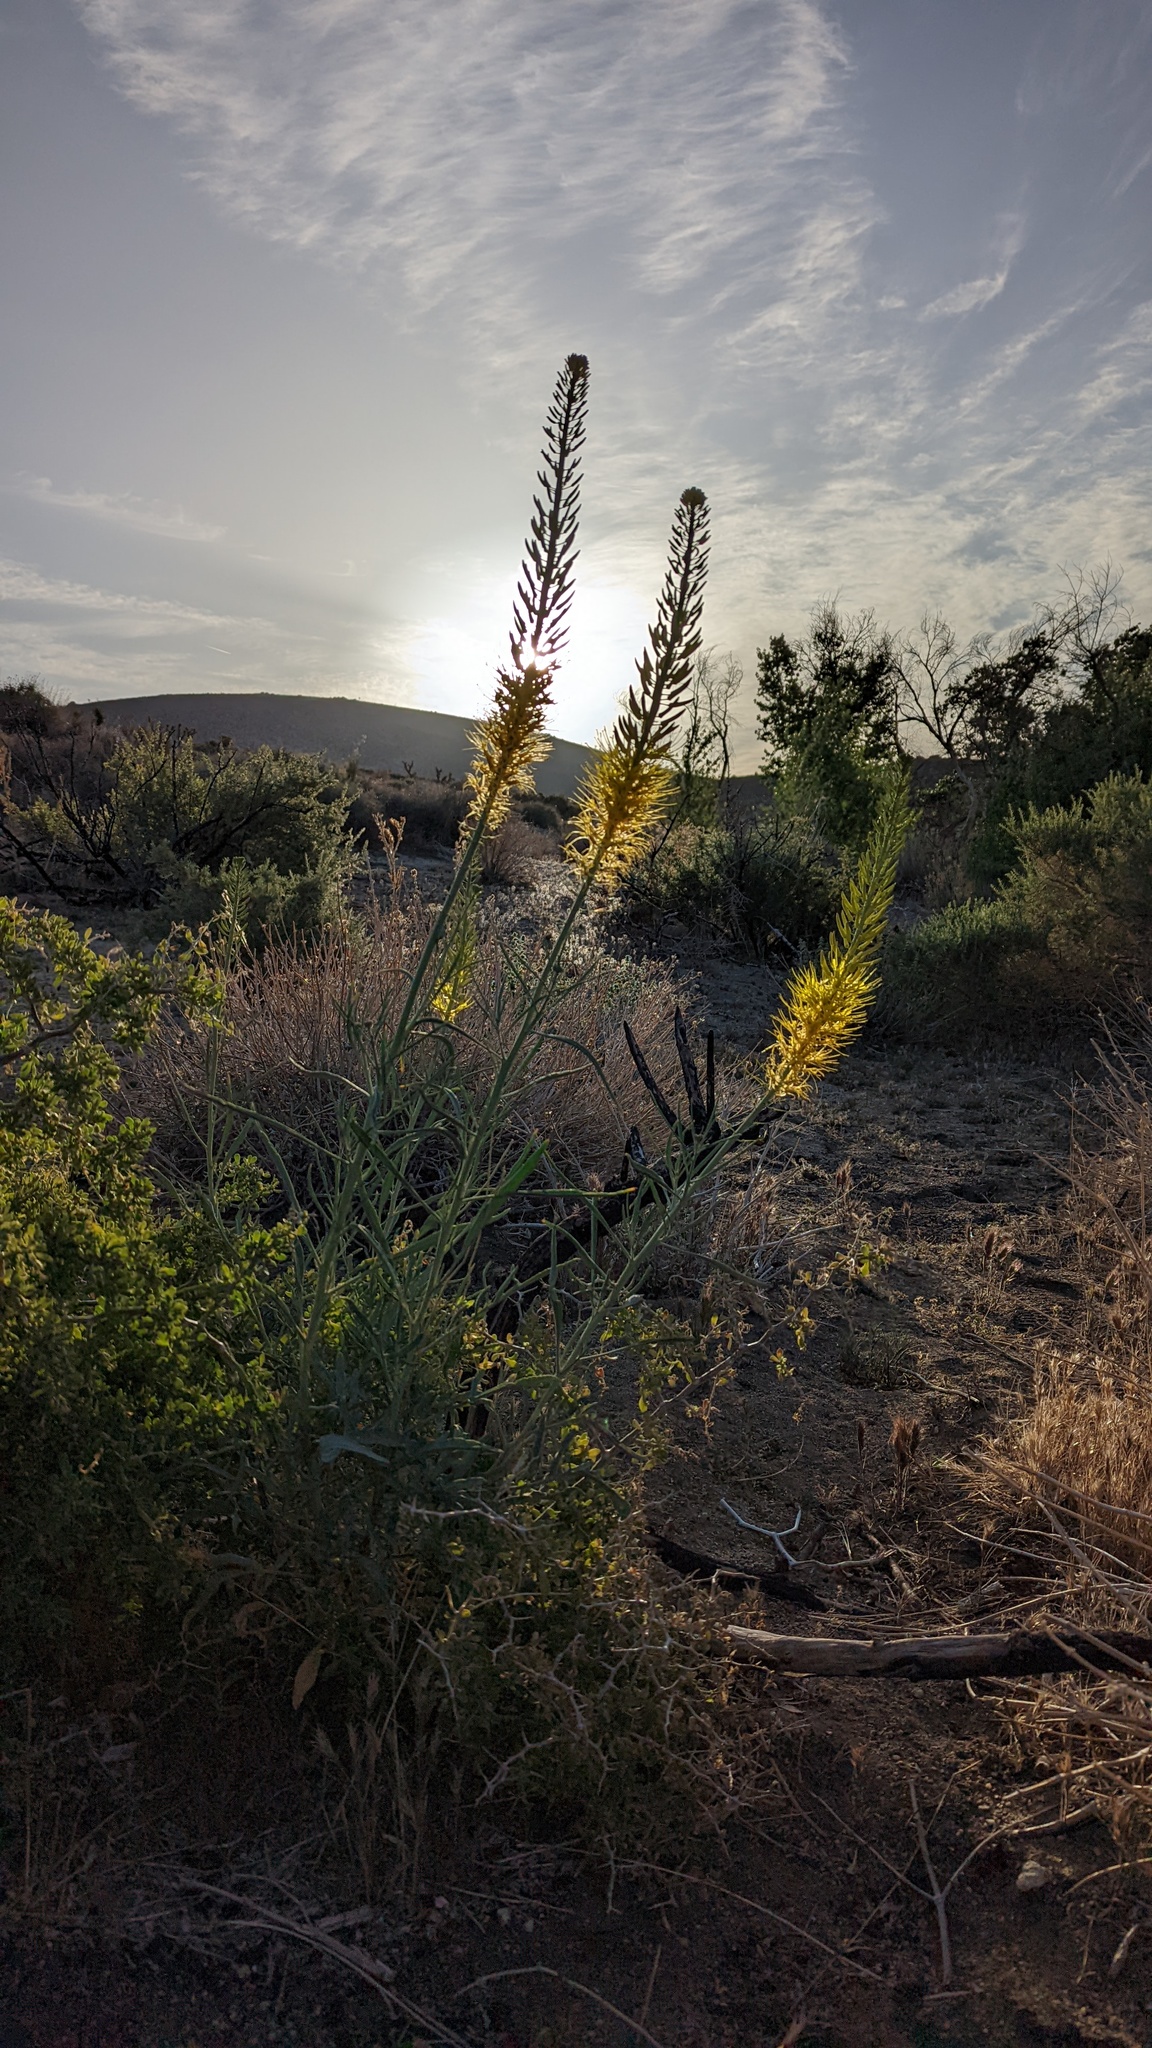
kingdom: Plantae
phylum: Tracheophyta
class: Magnoliopsida
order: Brassicales
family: Brassicaceae
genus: Stanleya
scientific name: Stanleya pinnata
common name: Prince's-plume
